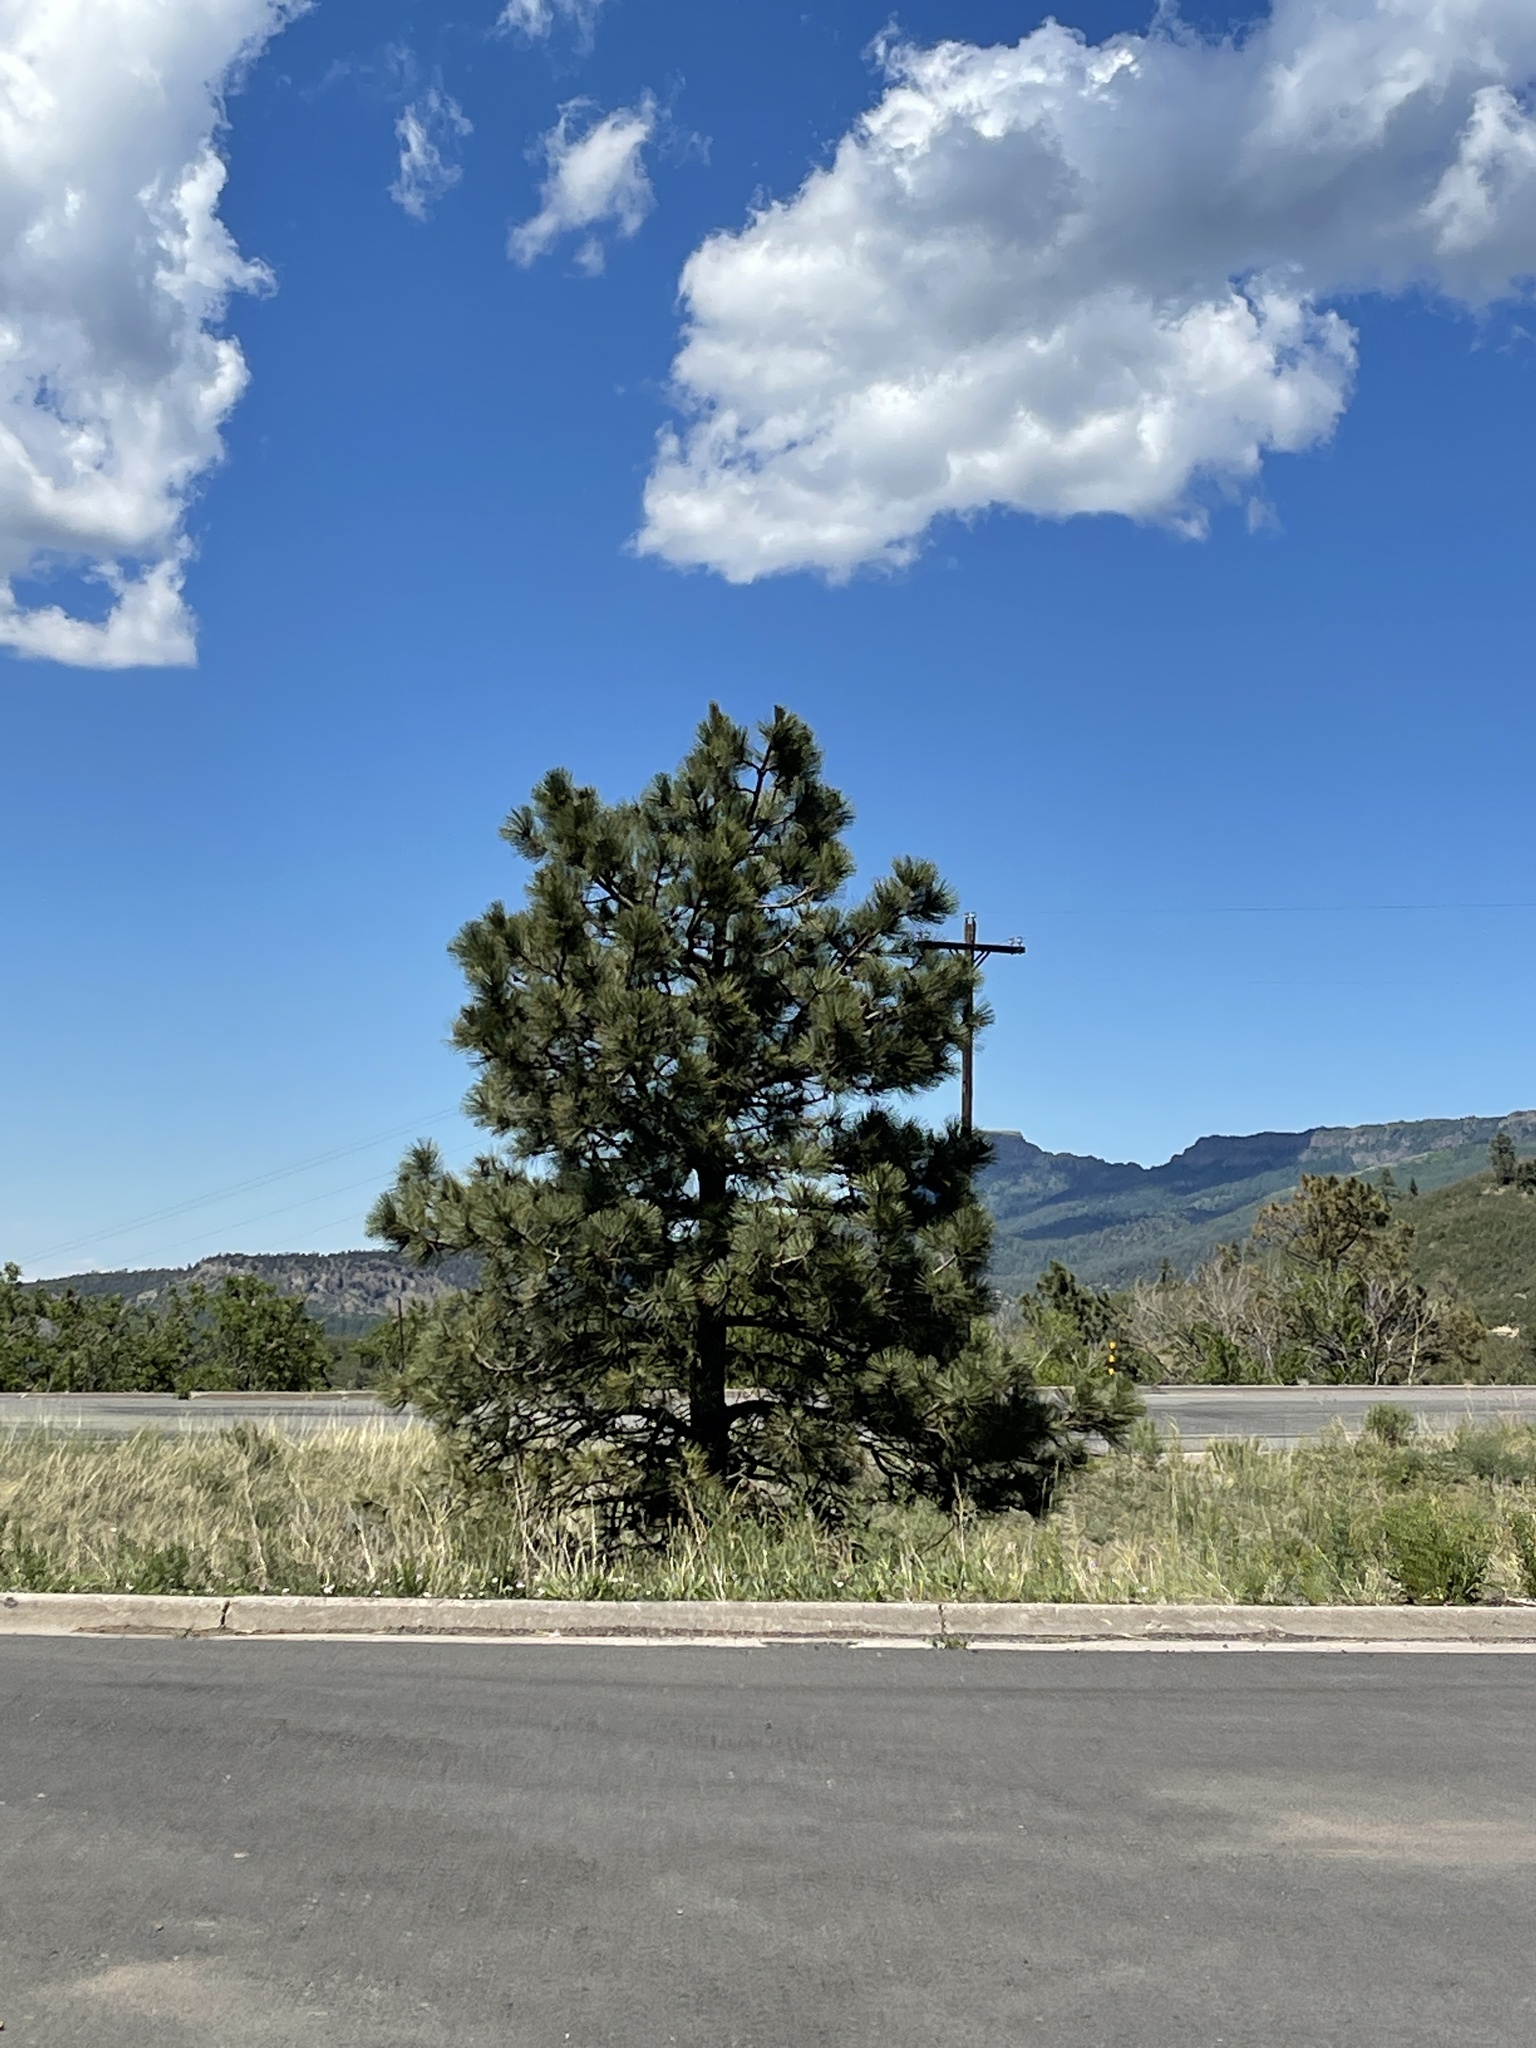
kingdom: Plantae
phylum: Tracheophyta
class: Pinopsida
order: Pinales
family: Pinaceae
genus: Pinus
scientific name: Pinus ponderosa
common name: Western yellow-pine
